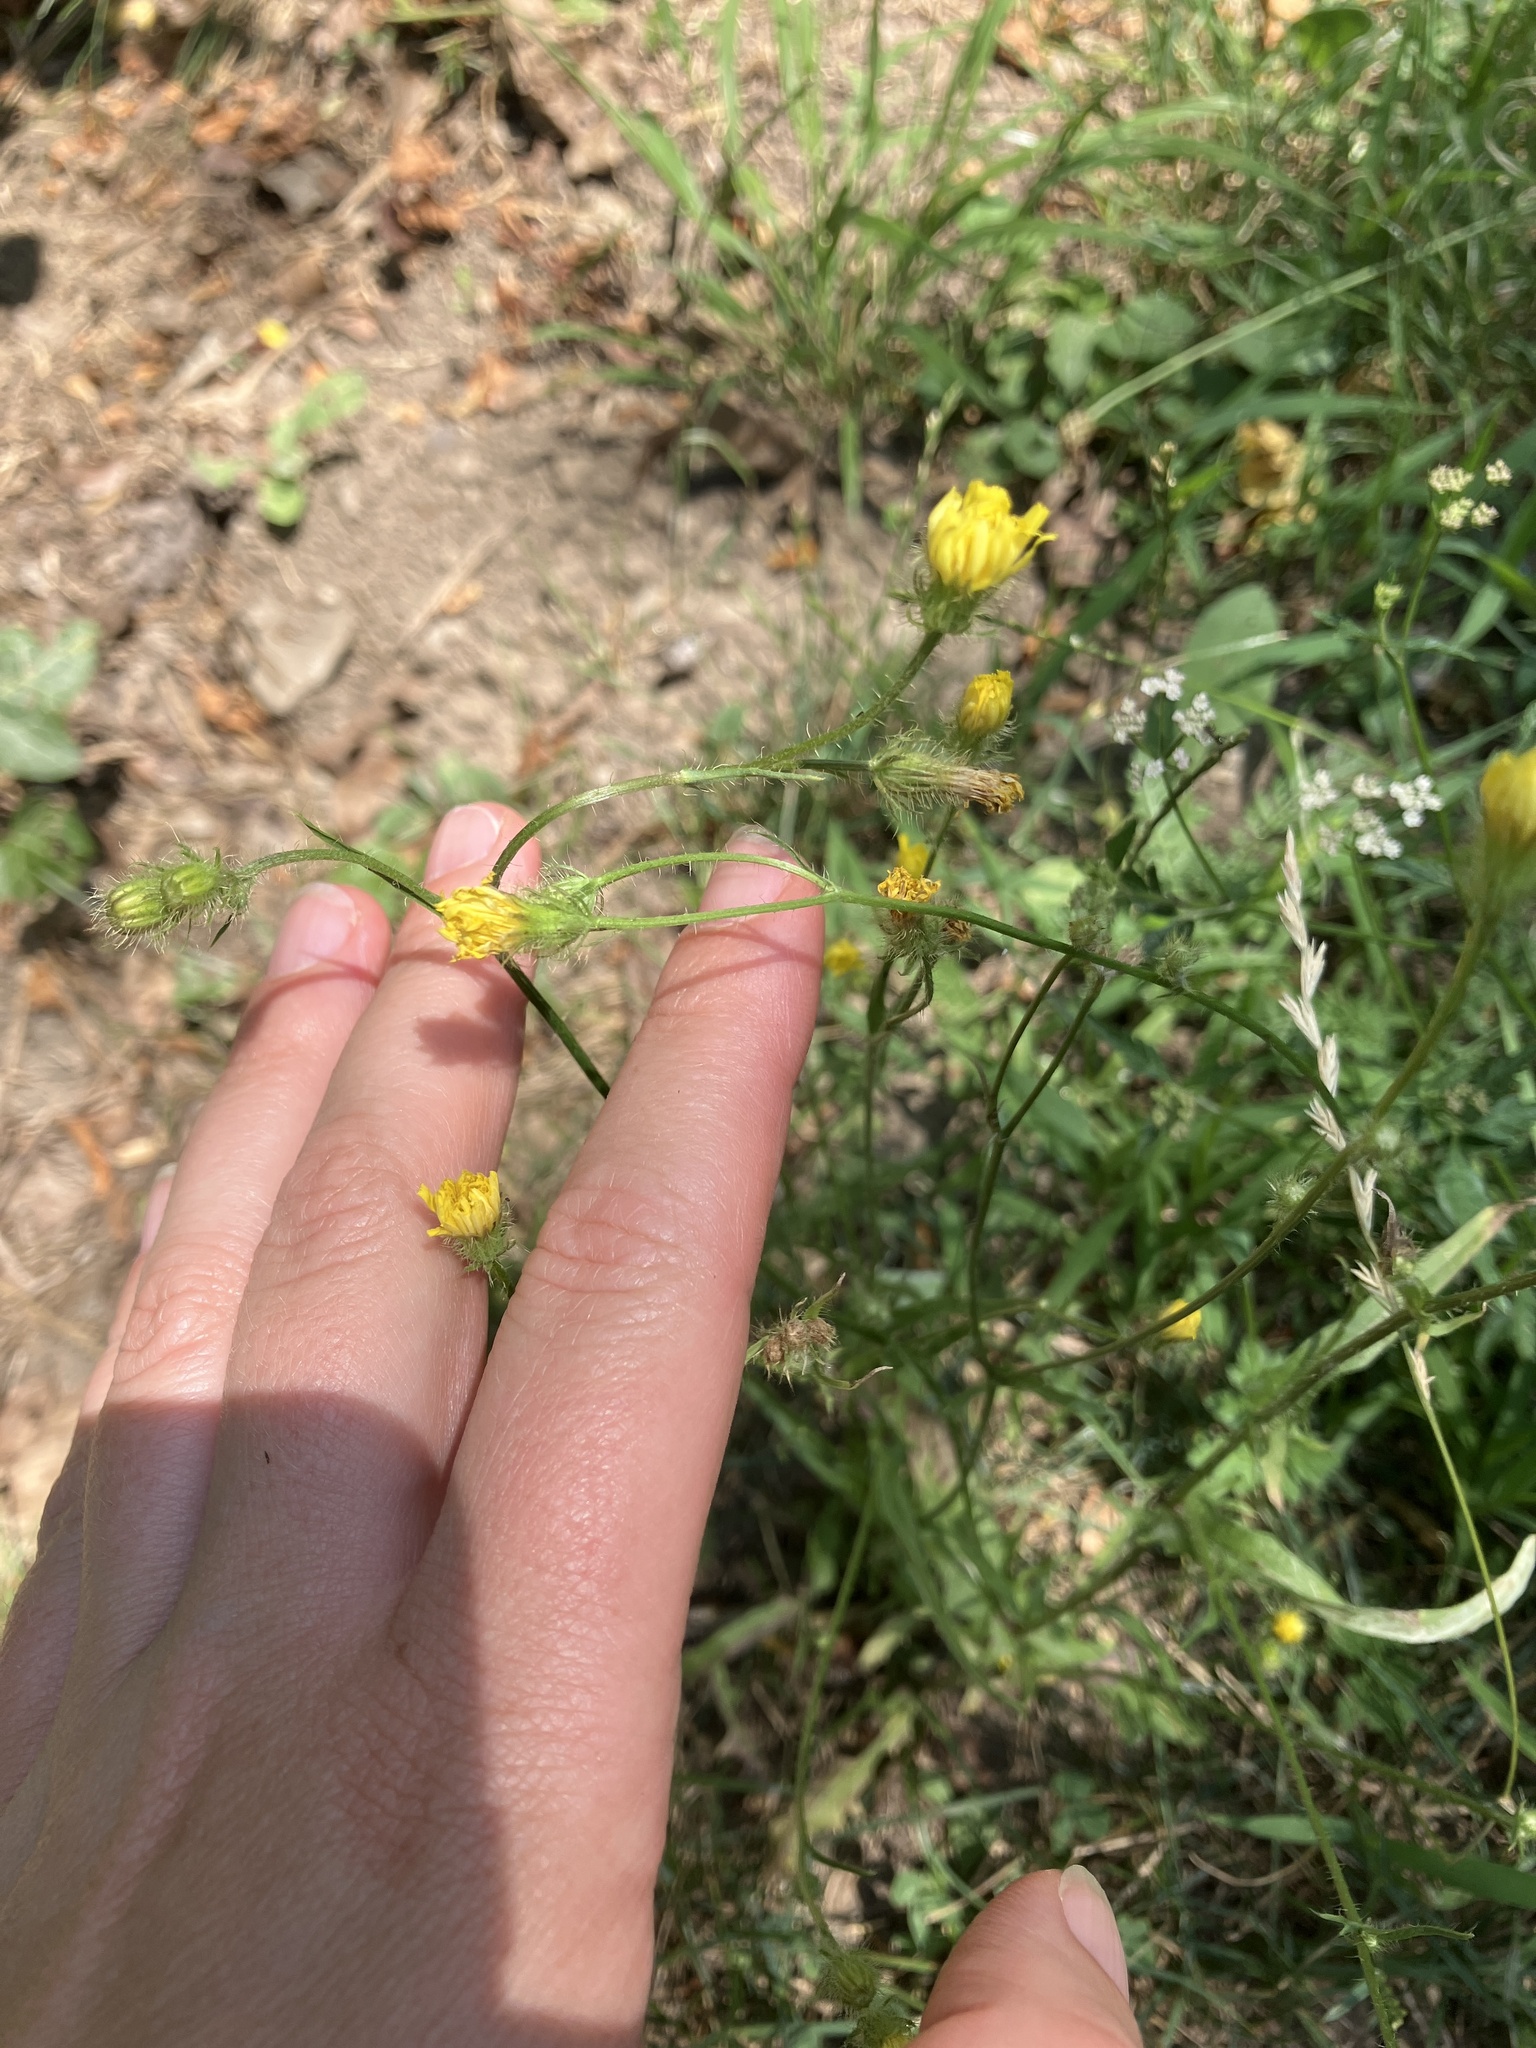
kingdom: Plantae
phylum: Tracheophyta
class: Magnoliopsida
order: Asterales
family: Asteraceae
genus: Crepis
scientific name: Crepis setosa
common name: Bristly hawk's-beard
